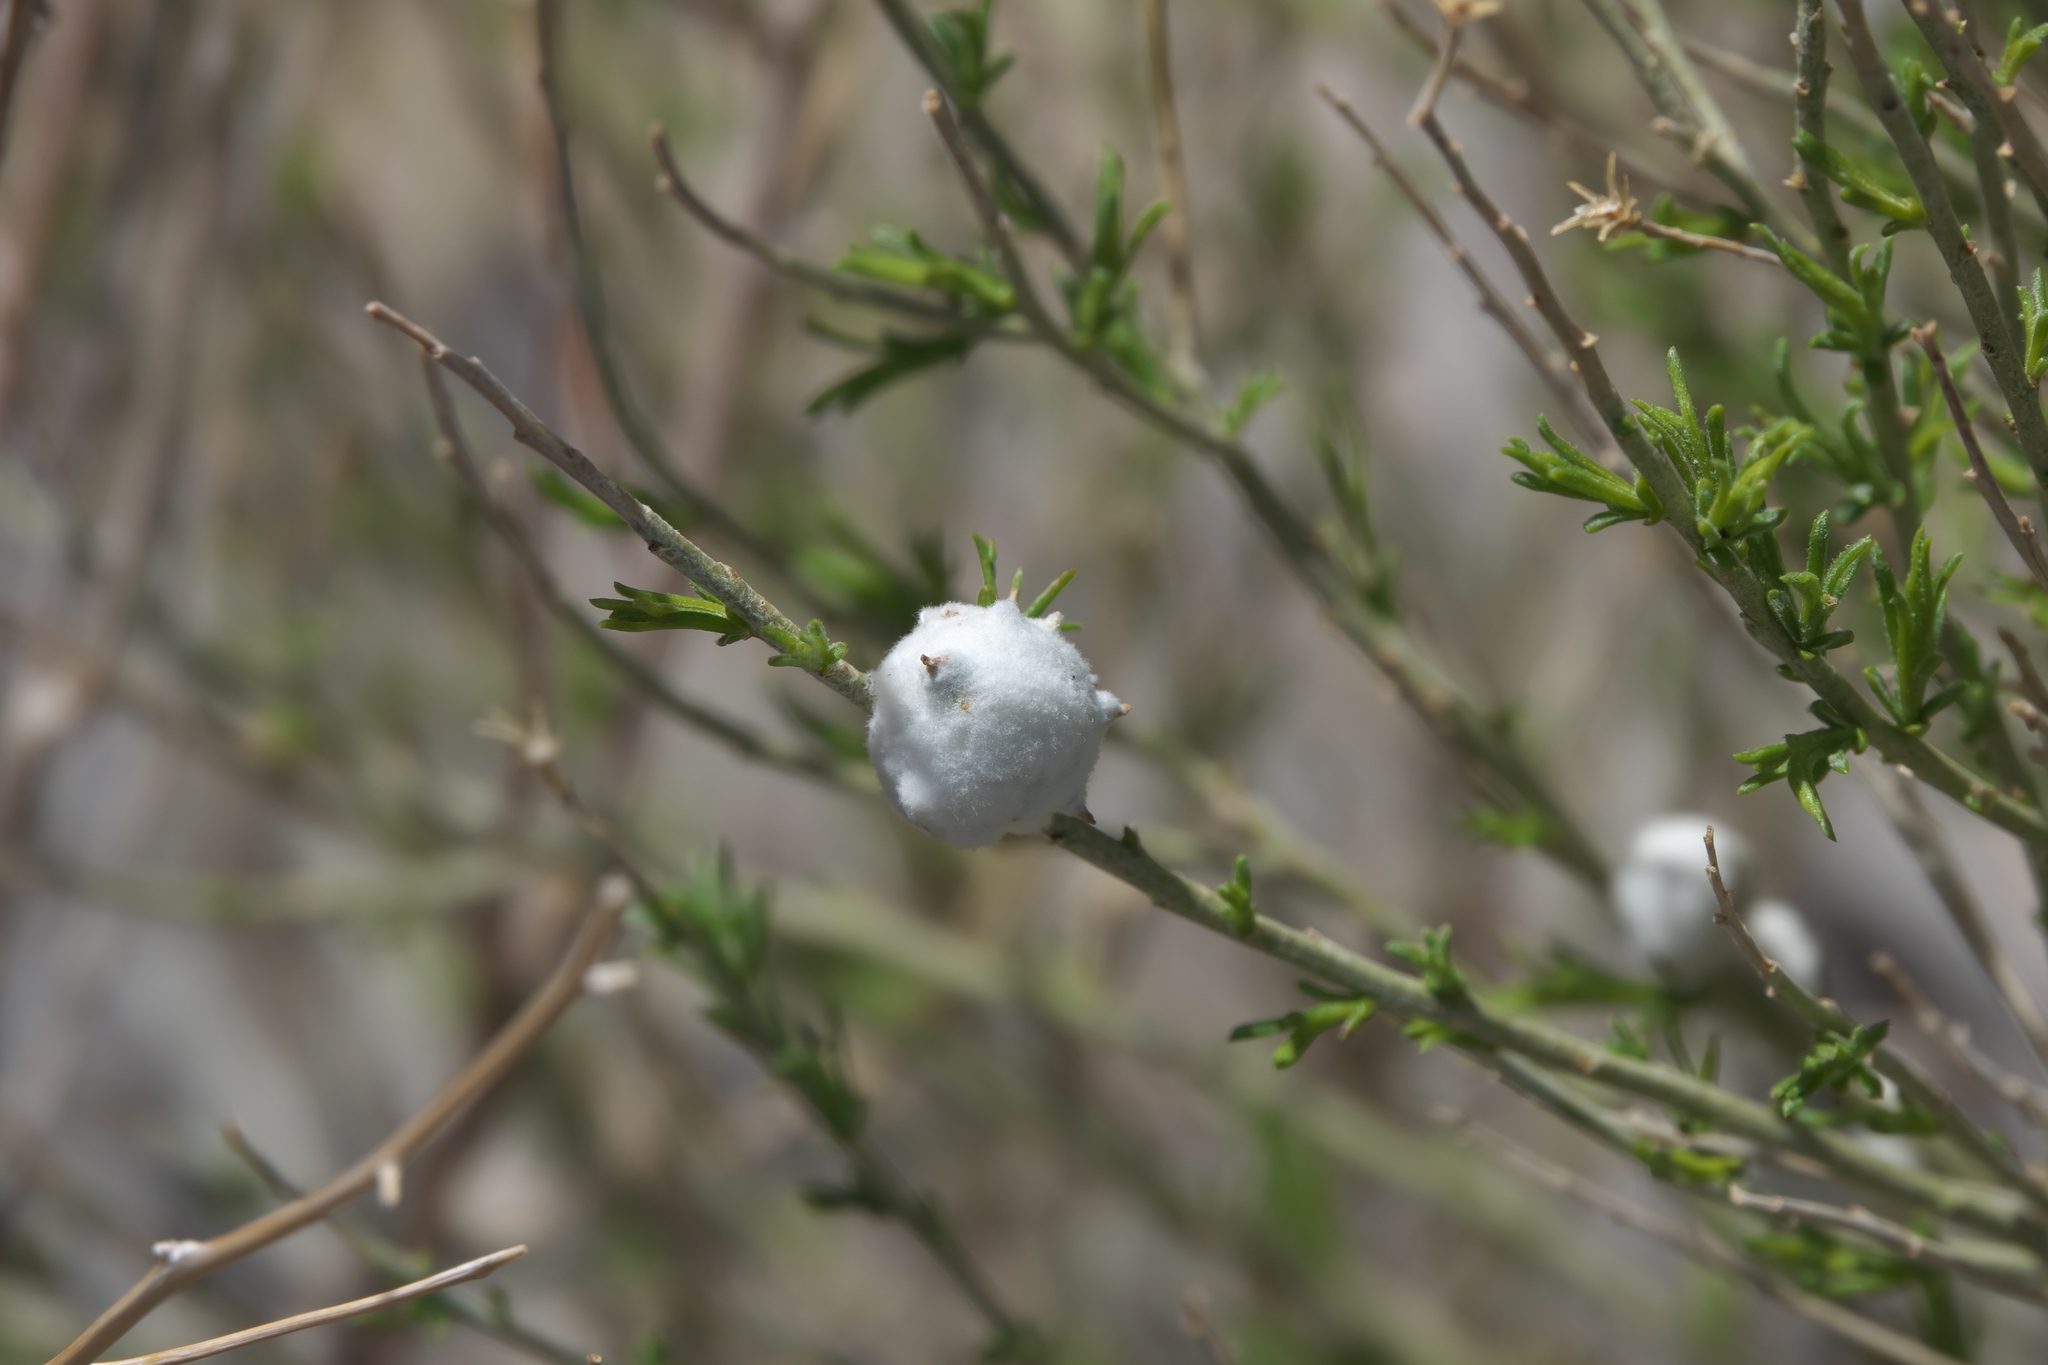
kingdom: Animalia
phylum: Arthropoda
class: Insecta
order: Diptera
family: Tephritidae
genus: Aciurina
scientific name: Aciurina bigeloviae
